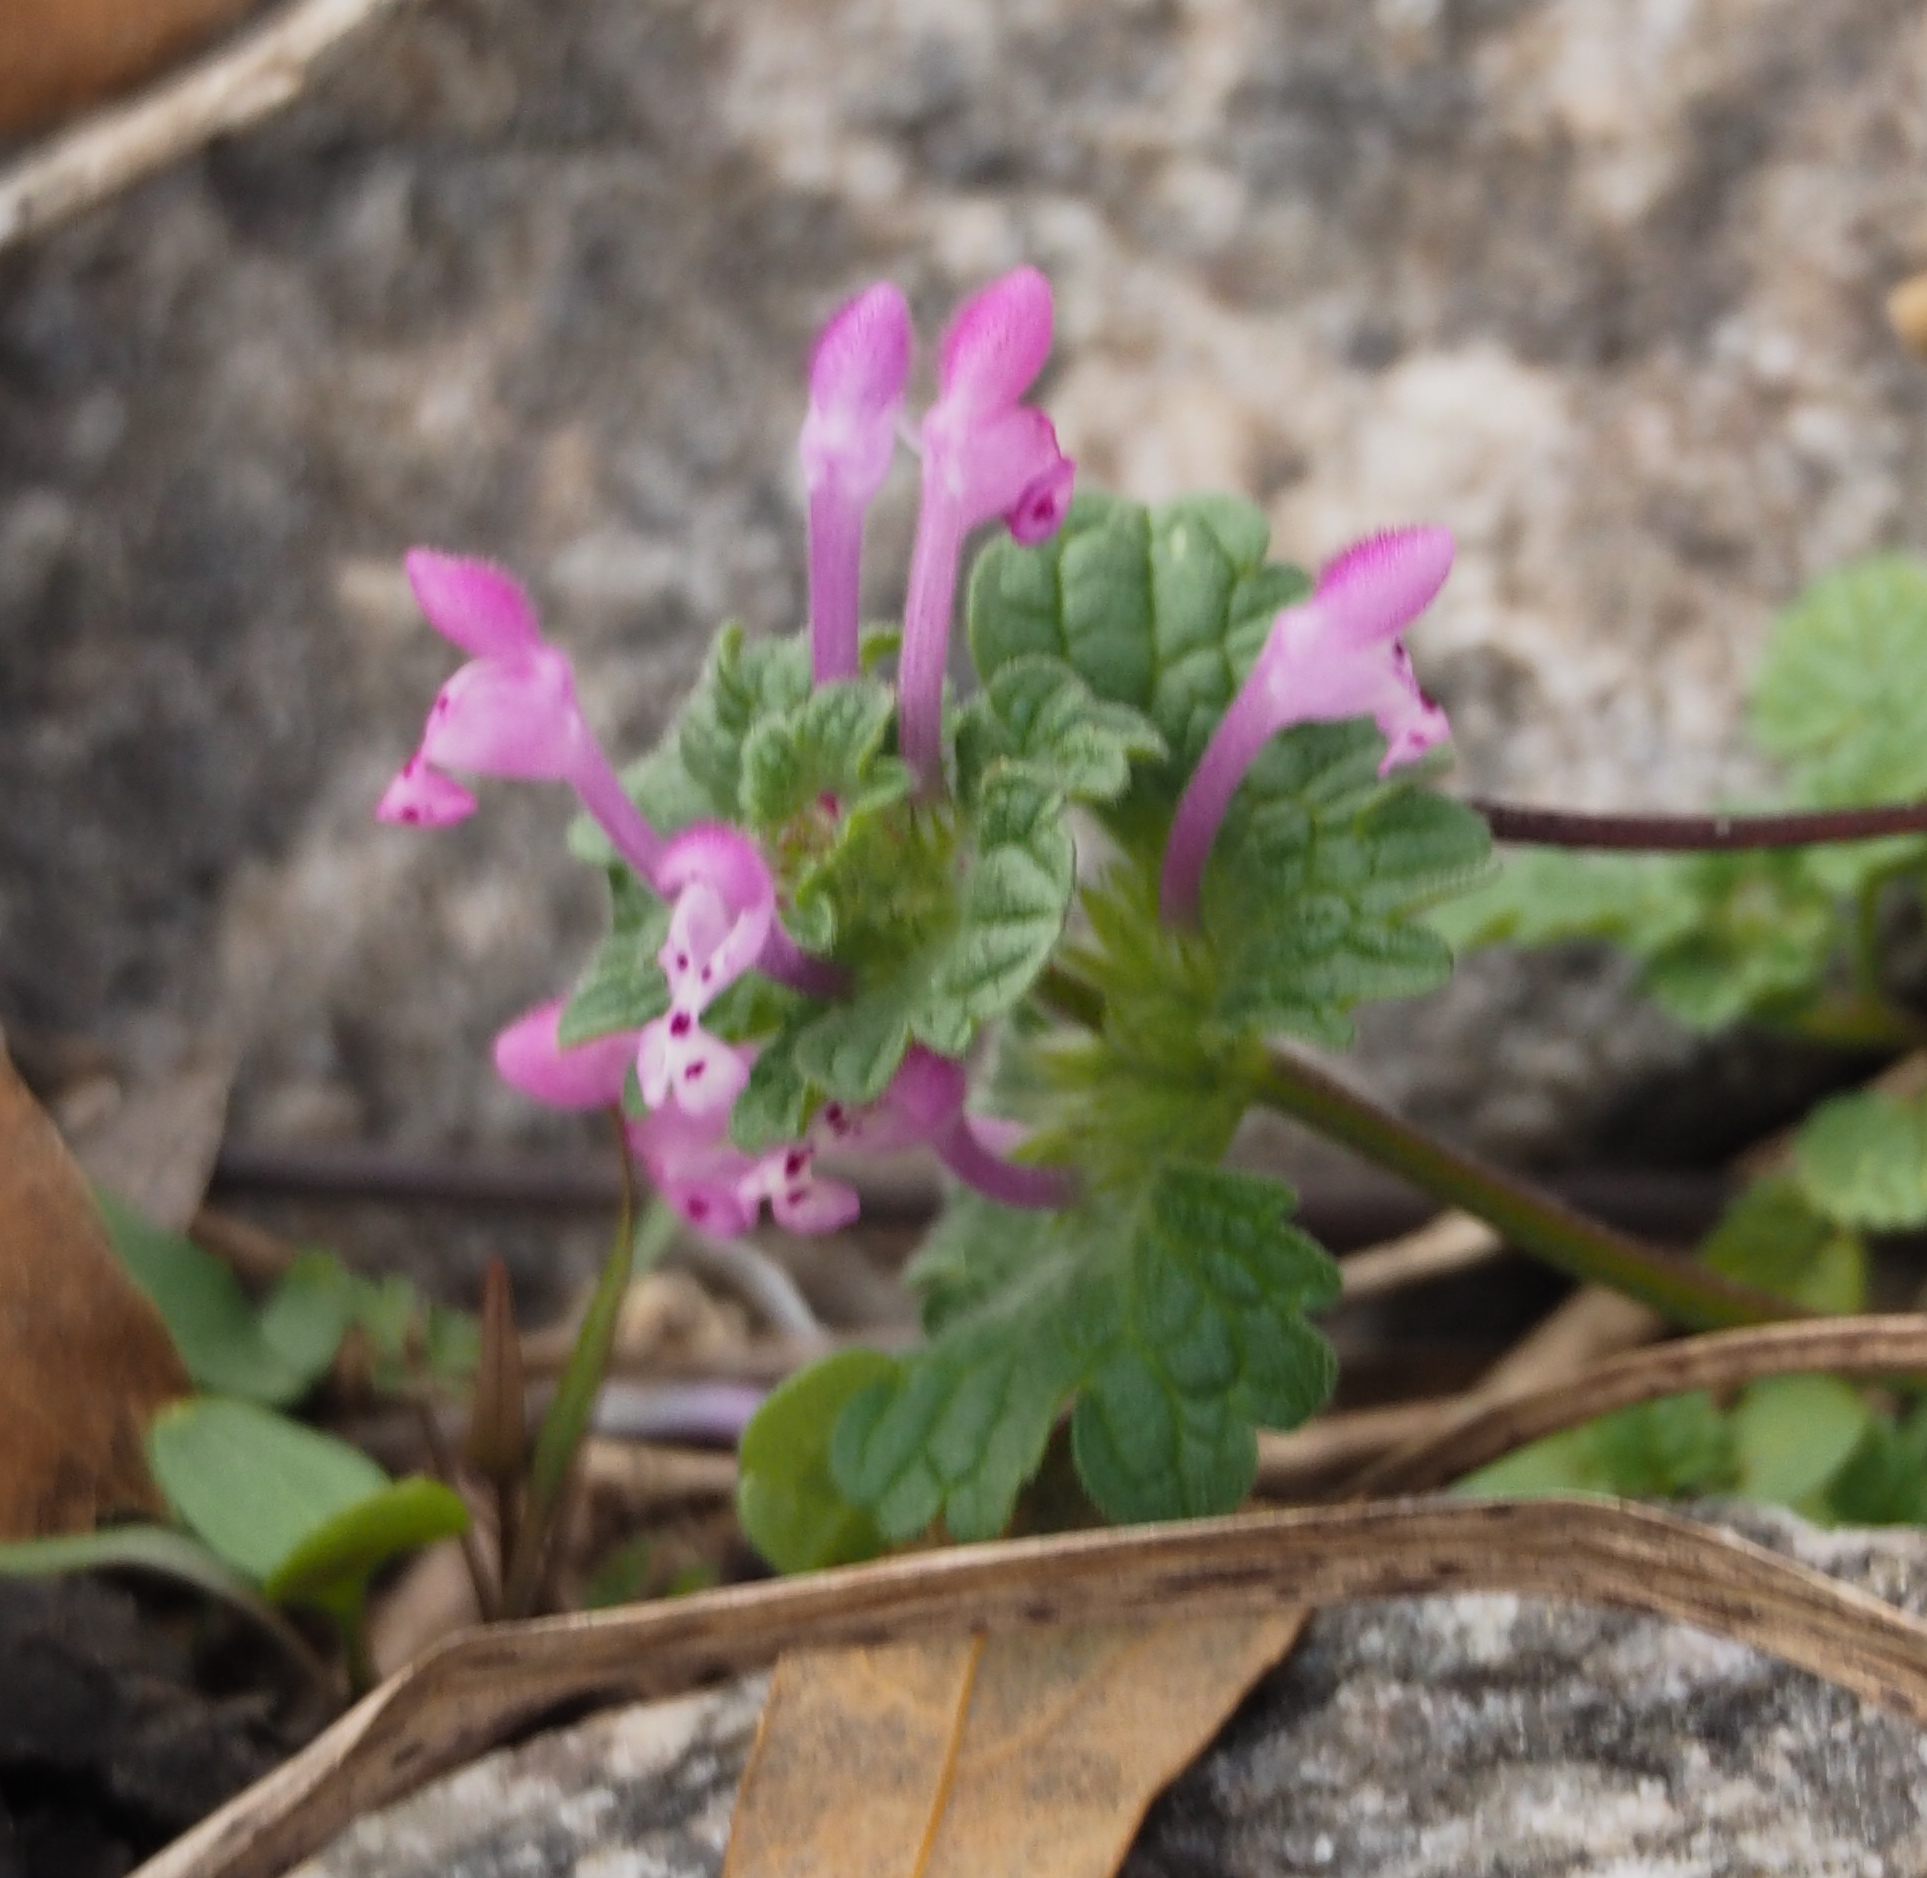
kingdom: Plantae
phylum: Tracheophyta
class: Magnoliopsida
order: Lamiales
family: Lamiaceae
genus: Lamium
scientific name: Lamium amplexicaule
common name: Henbit dead-nettle
